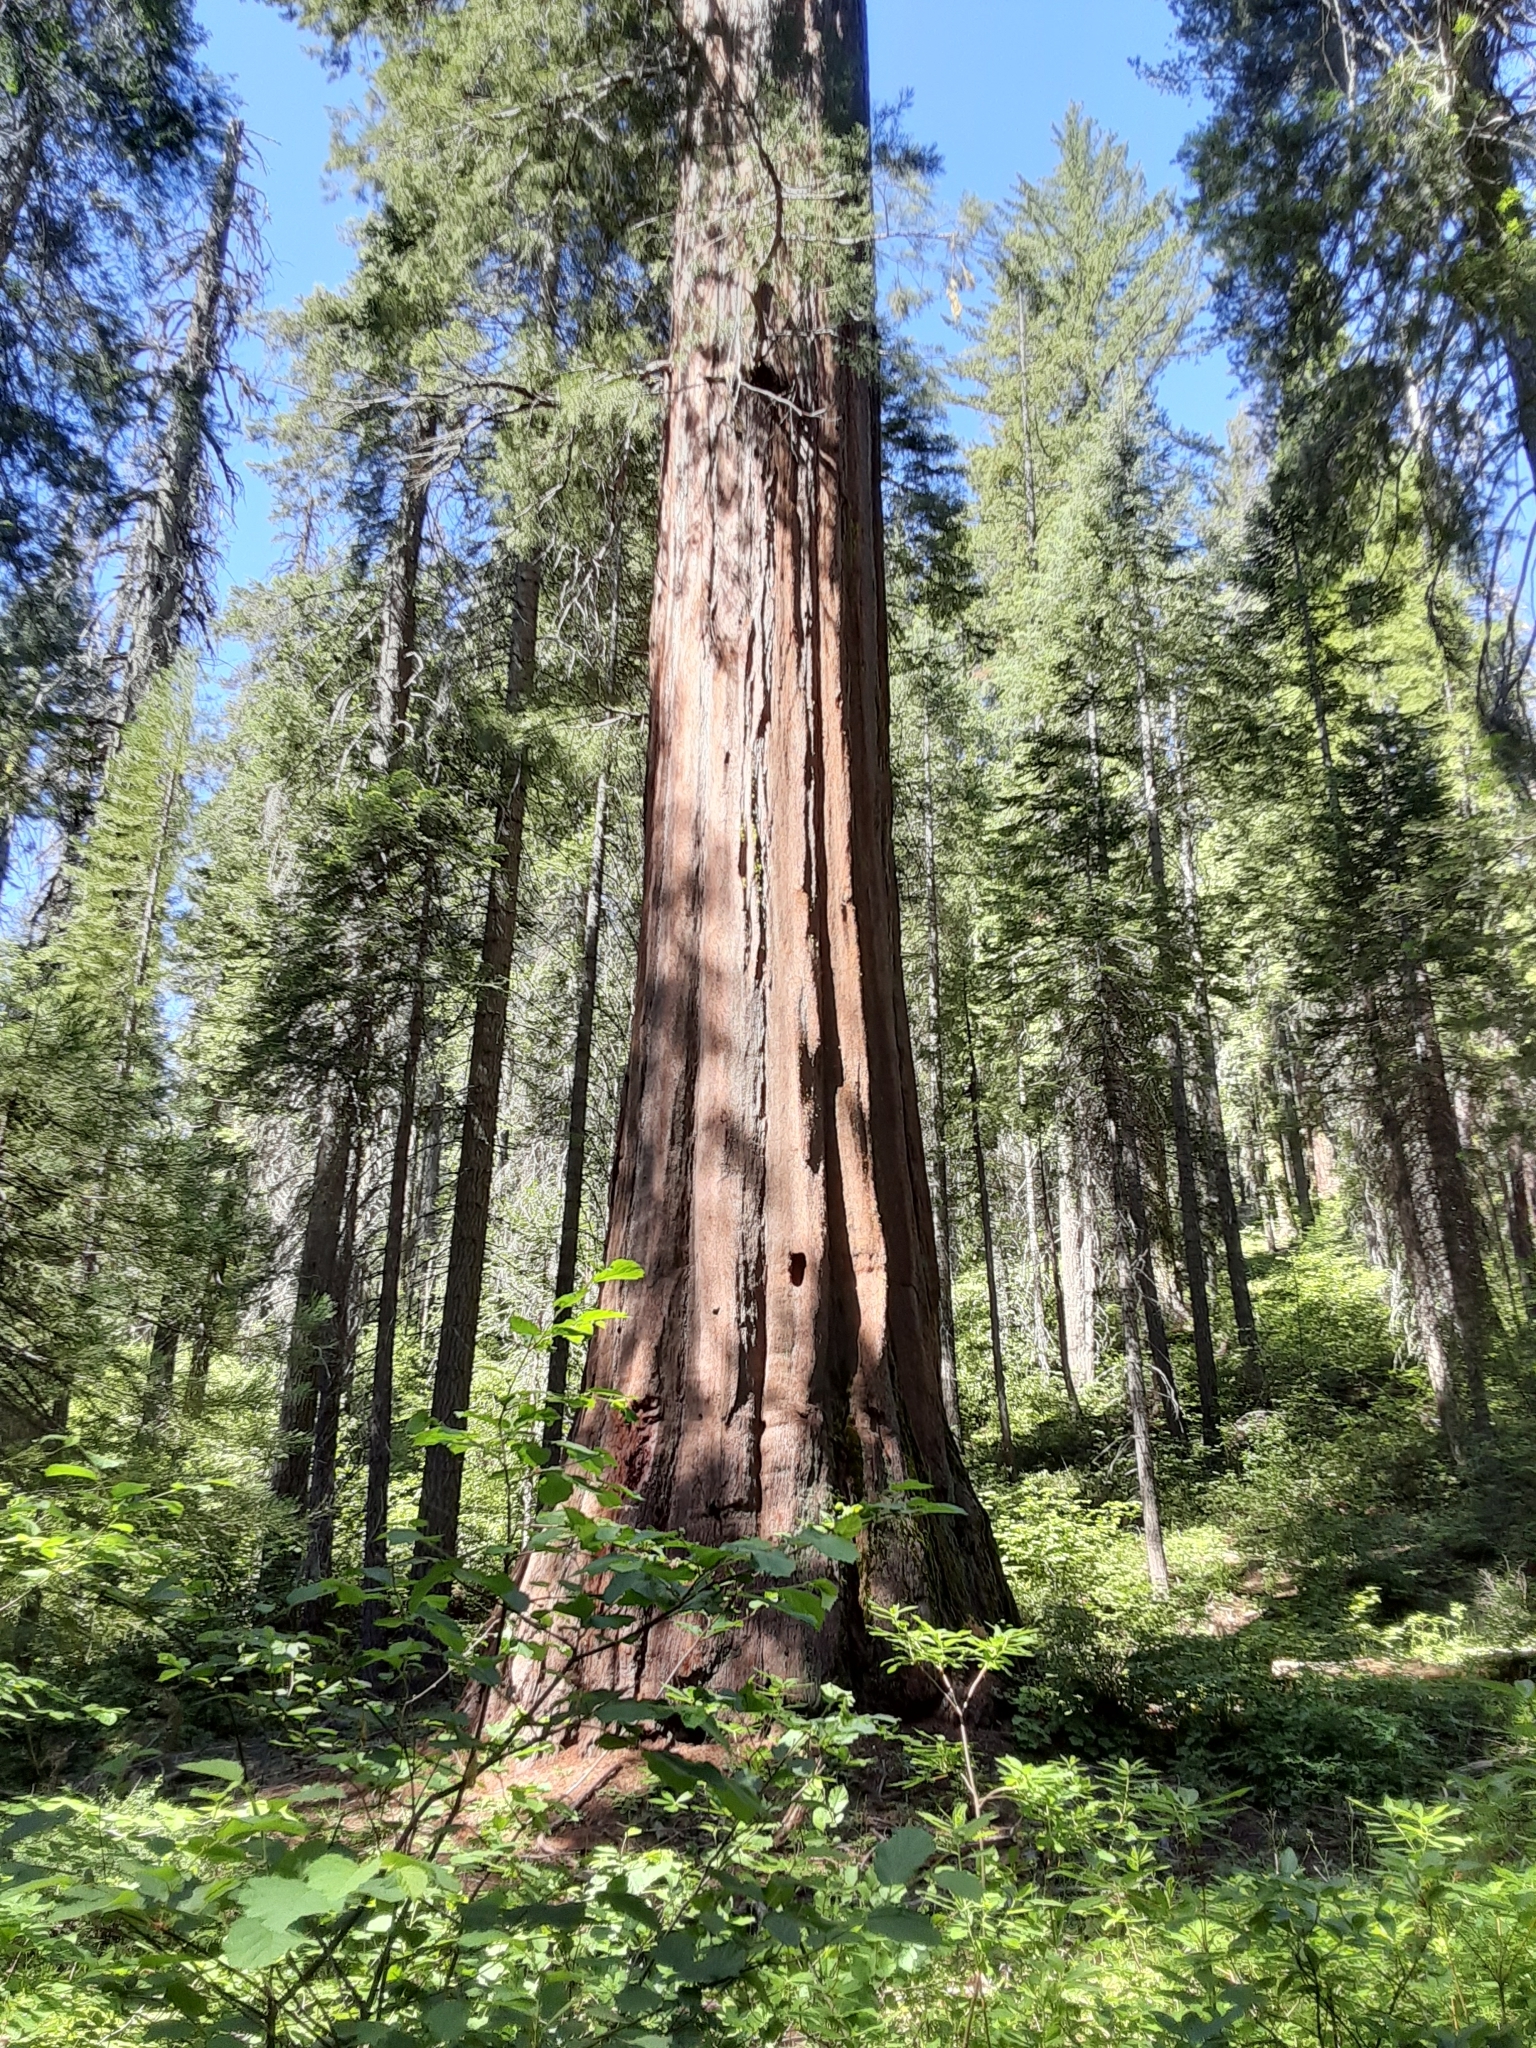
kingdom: Plantae
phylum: Tracheophyta
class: Pinopsida
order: Pinales
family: Cupressaceae
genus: Sequoiadendron
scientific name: Sequoiadendron giganteum
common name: Wellingtonia
